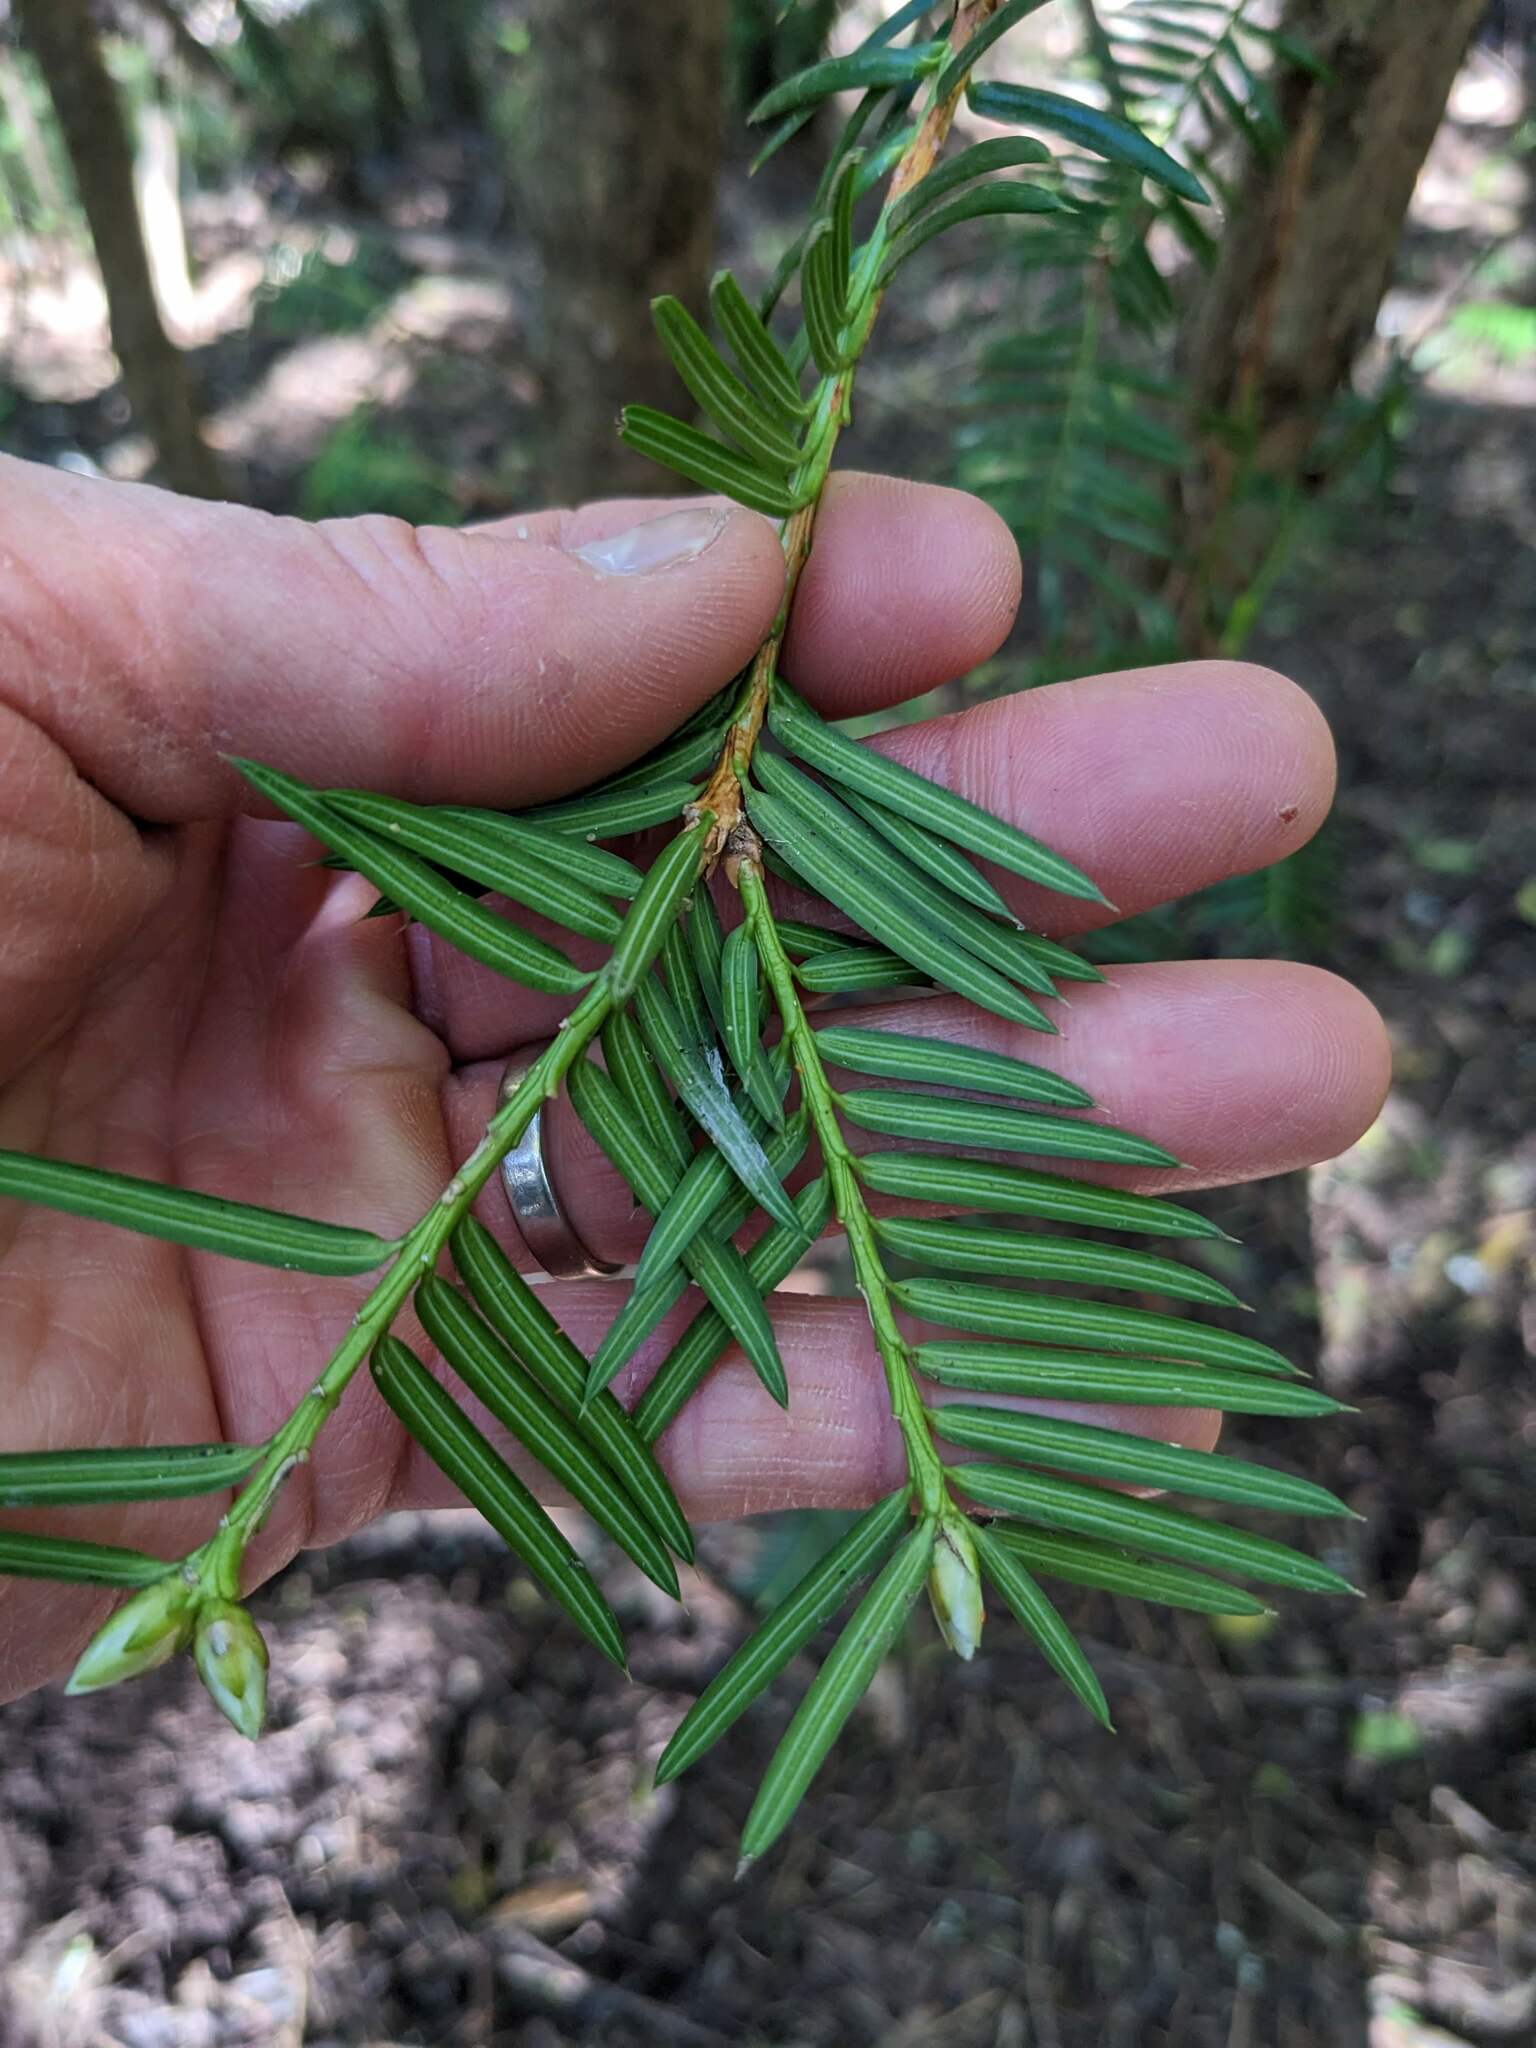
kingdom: Plantae
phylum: Tracheophyta
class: Pinopsida
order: Pinales
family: Taxaceae
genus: Torreya
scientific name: Torreya californica
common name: California torreya
